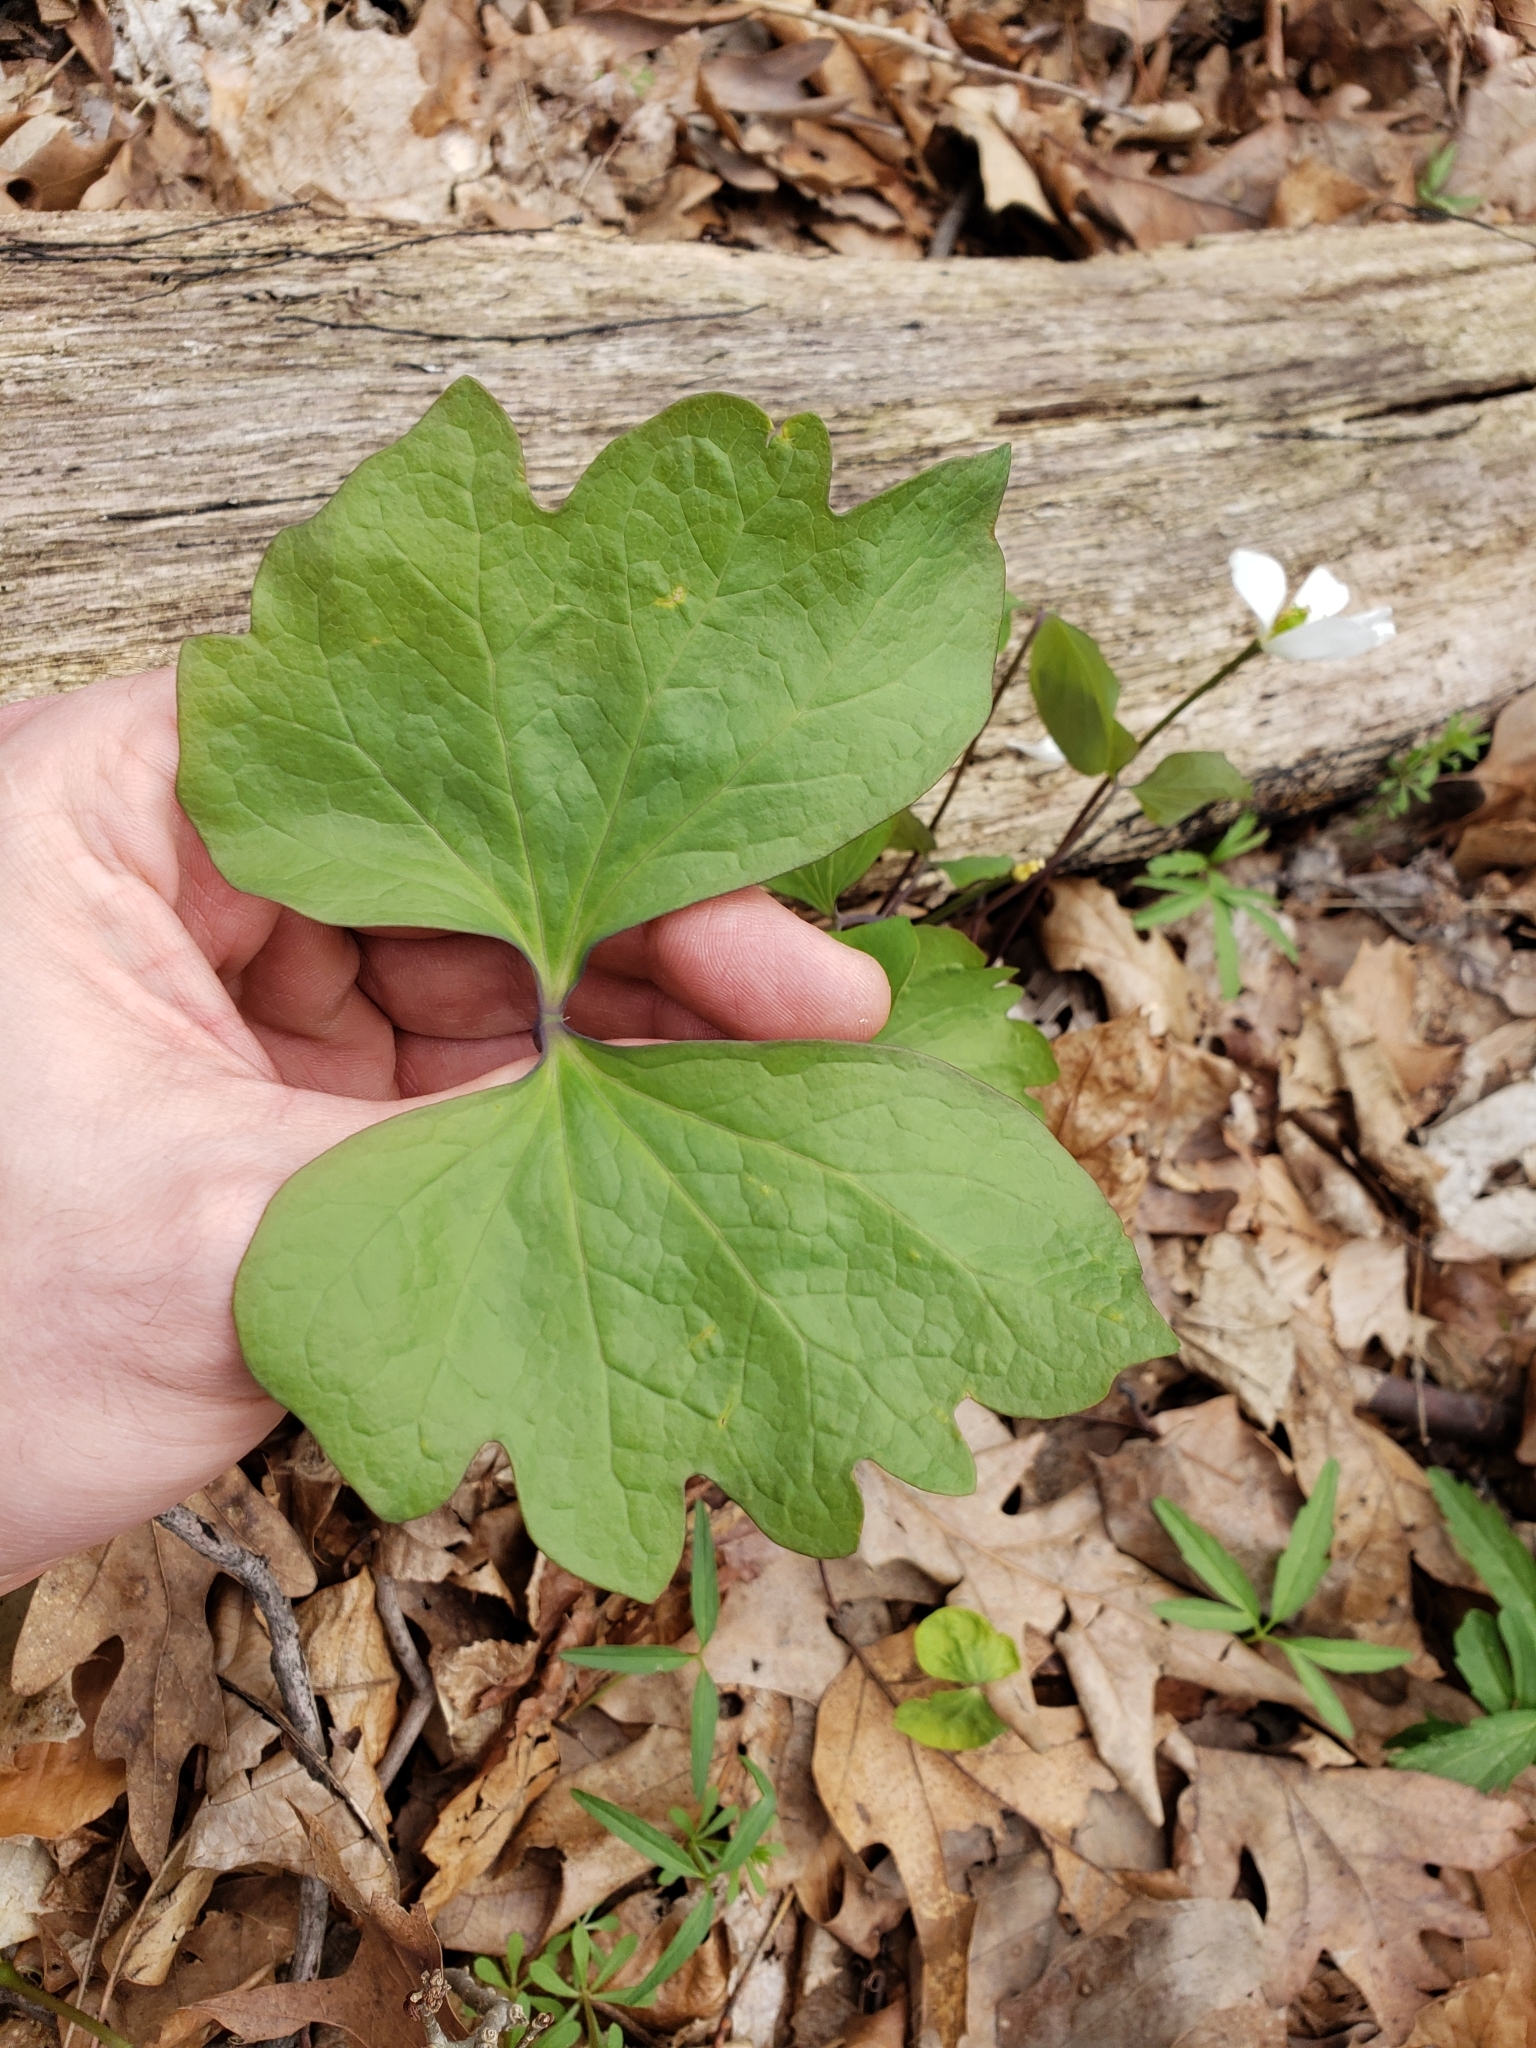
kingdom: Plantae
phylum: Tracheophyta
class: Magnoliopsida
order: Ranunculales
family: Berberidaceae
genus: Jeffersonia
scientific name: Jeffersonia diphylla
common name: Rheumatism-root
